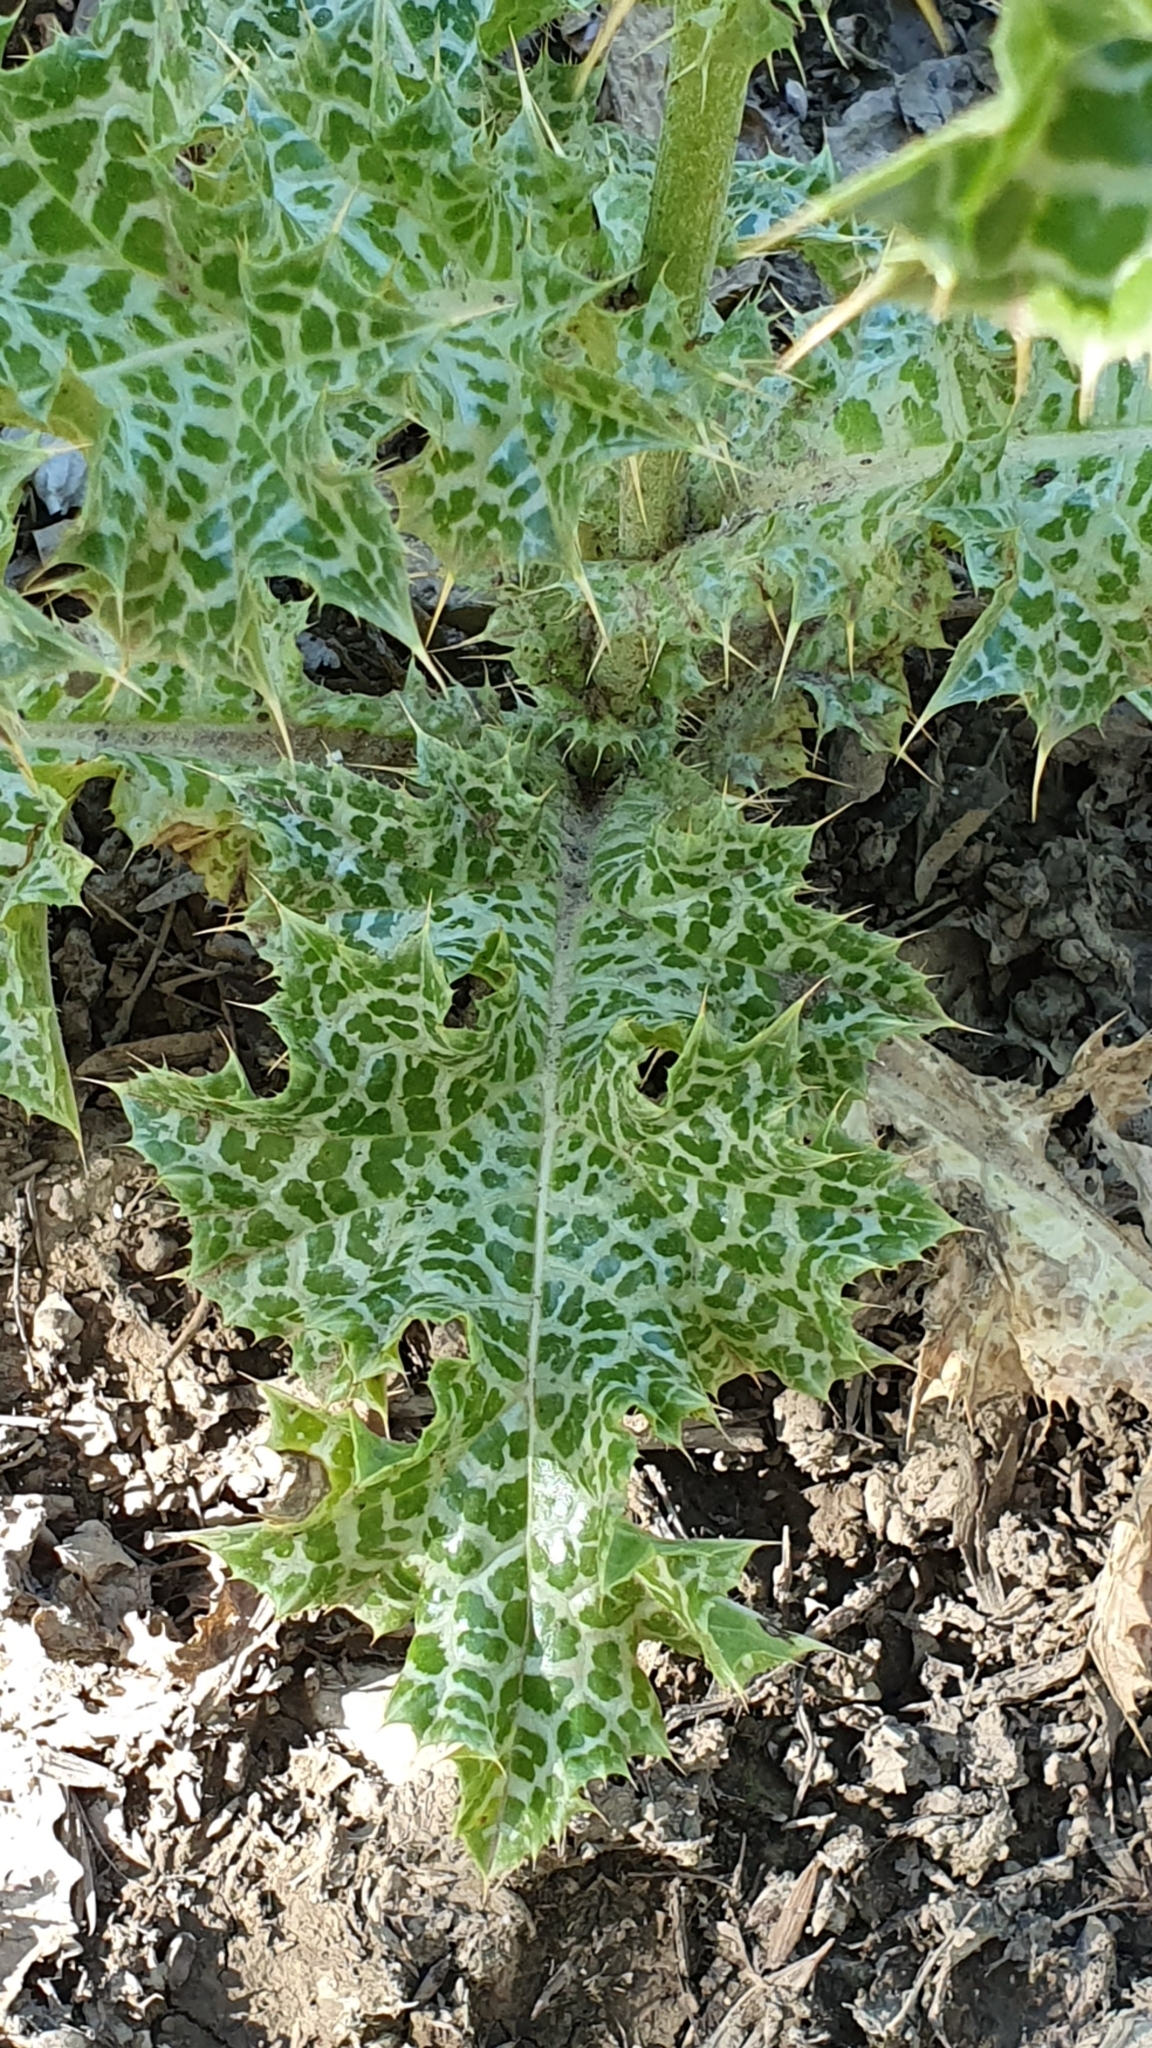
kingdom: Plantae
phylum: Tracheophyta
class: Magnoliopsida
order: Asterales
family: Asteraceae
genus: Silybum
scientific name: Silybum marianum
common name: Milk thistle
